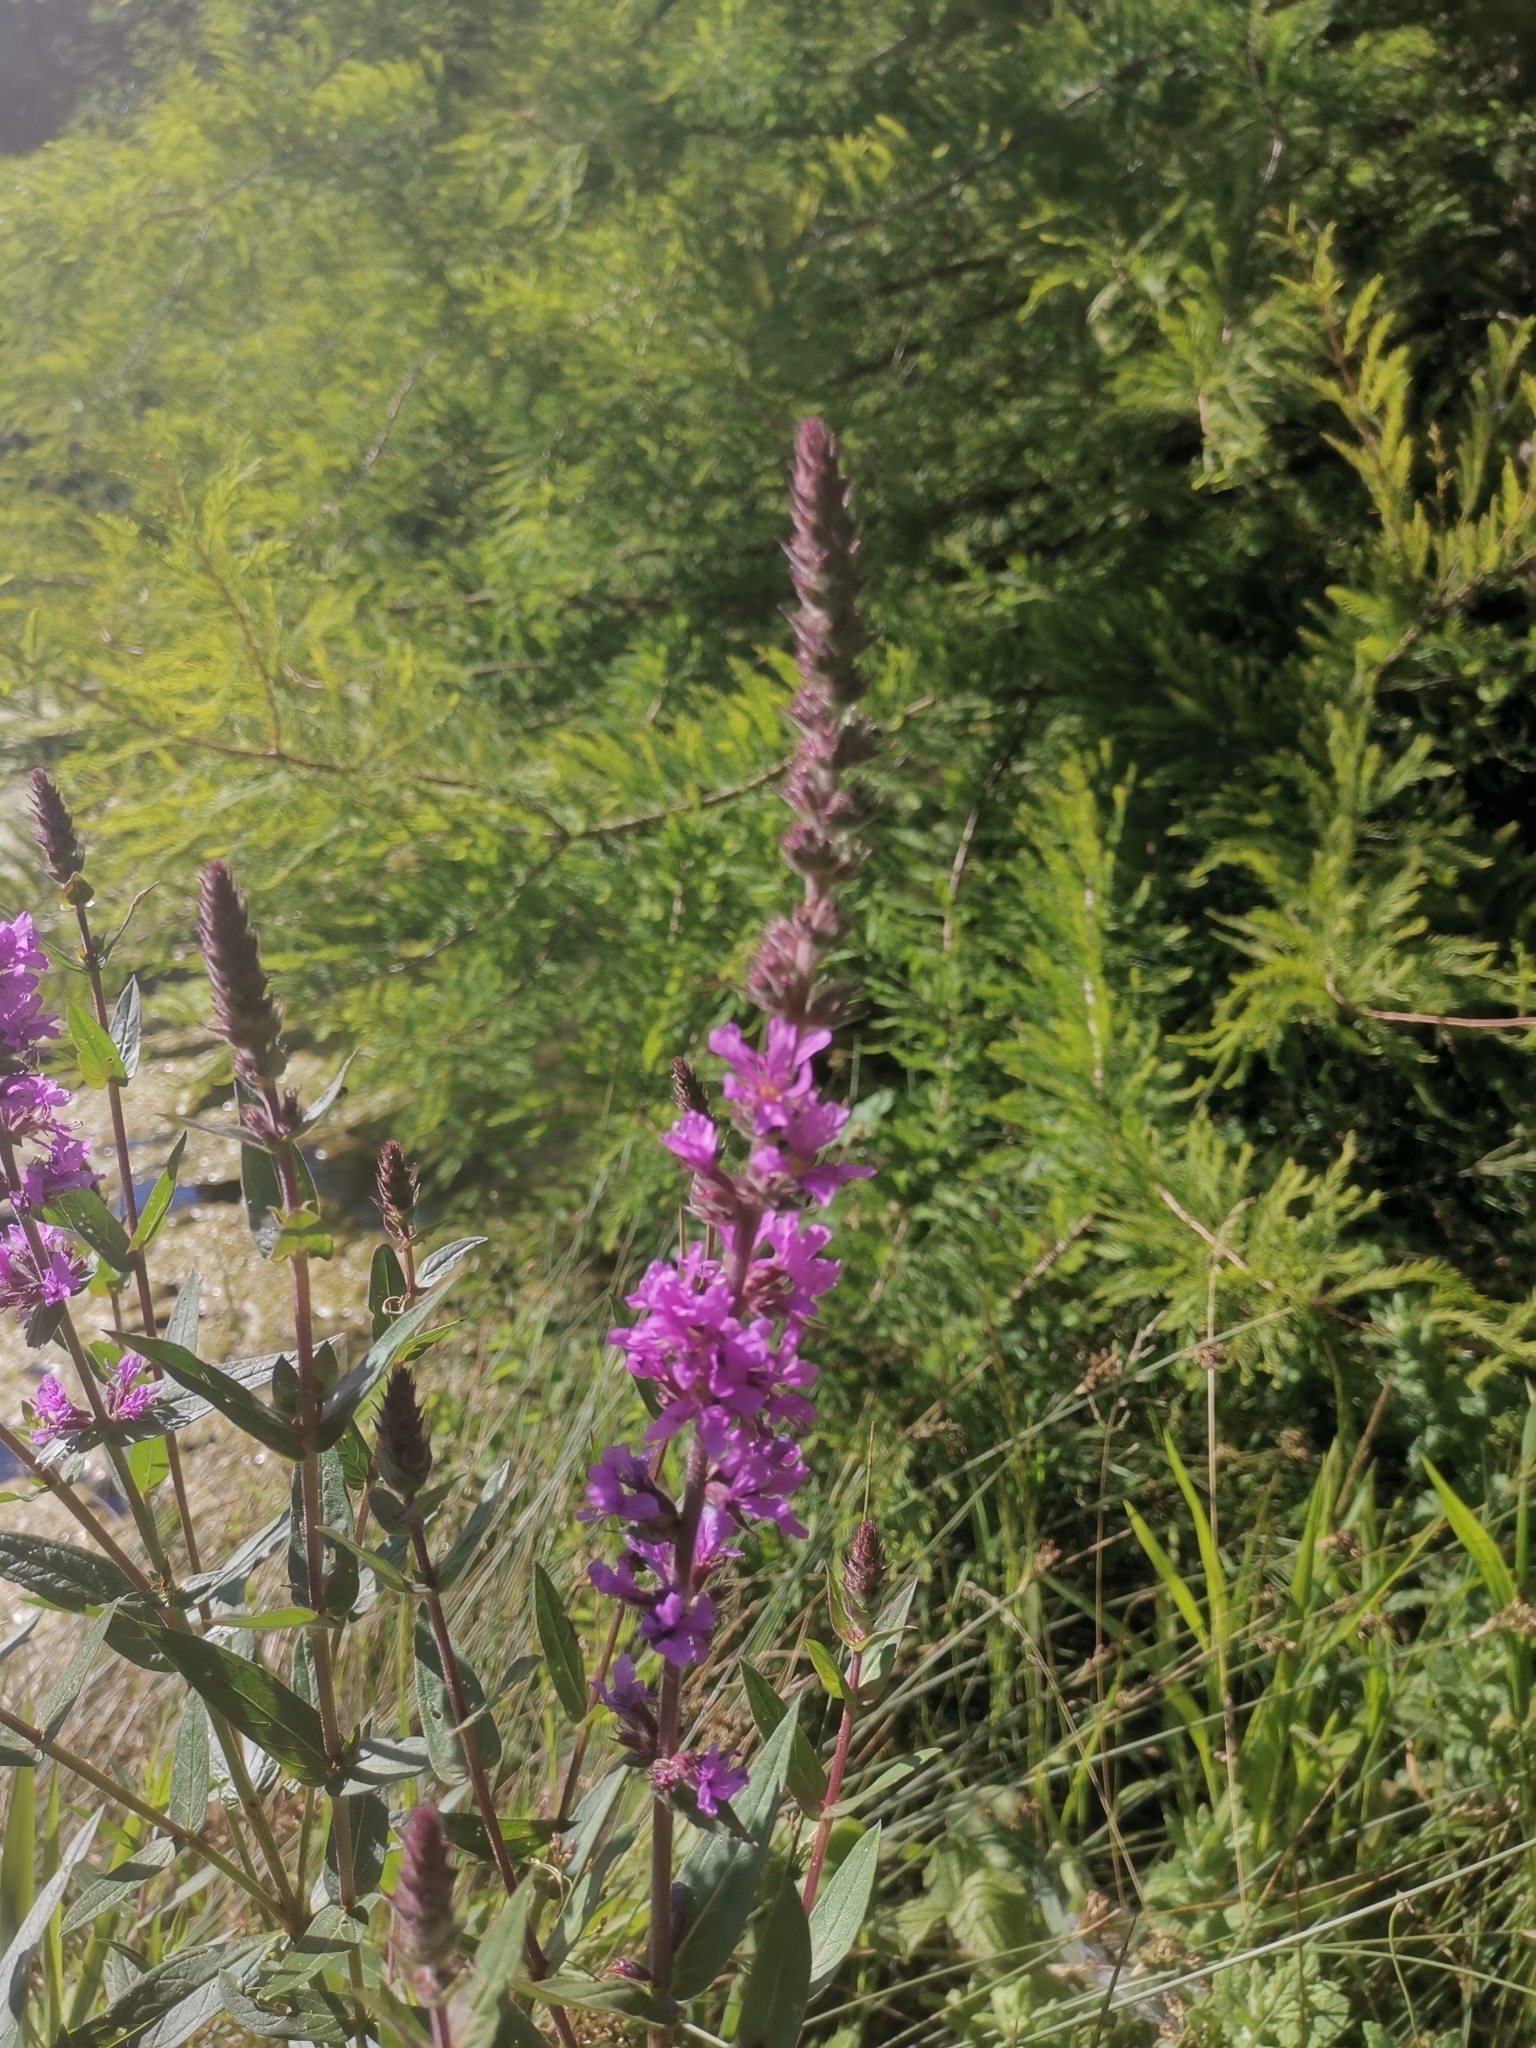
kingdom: Plantae
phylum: Tracheophyta
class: Magnoliopsida
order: Myrtales
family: Lythraceae
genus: Lythrum
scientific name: Lythrum salicaria
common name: Purple loosestrife
